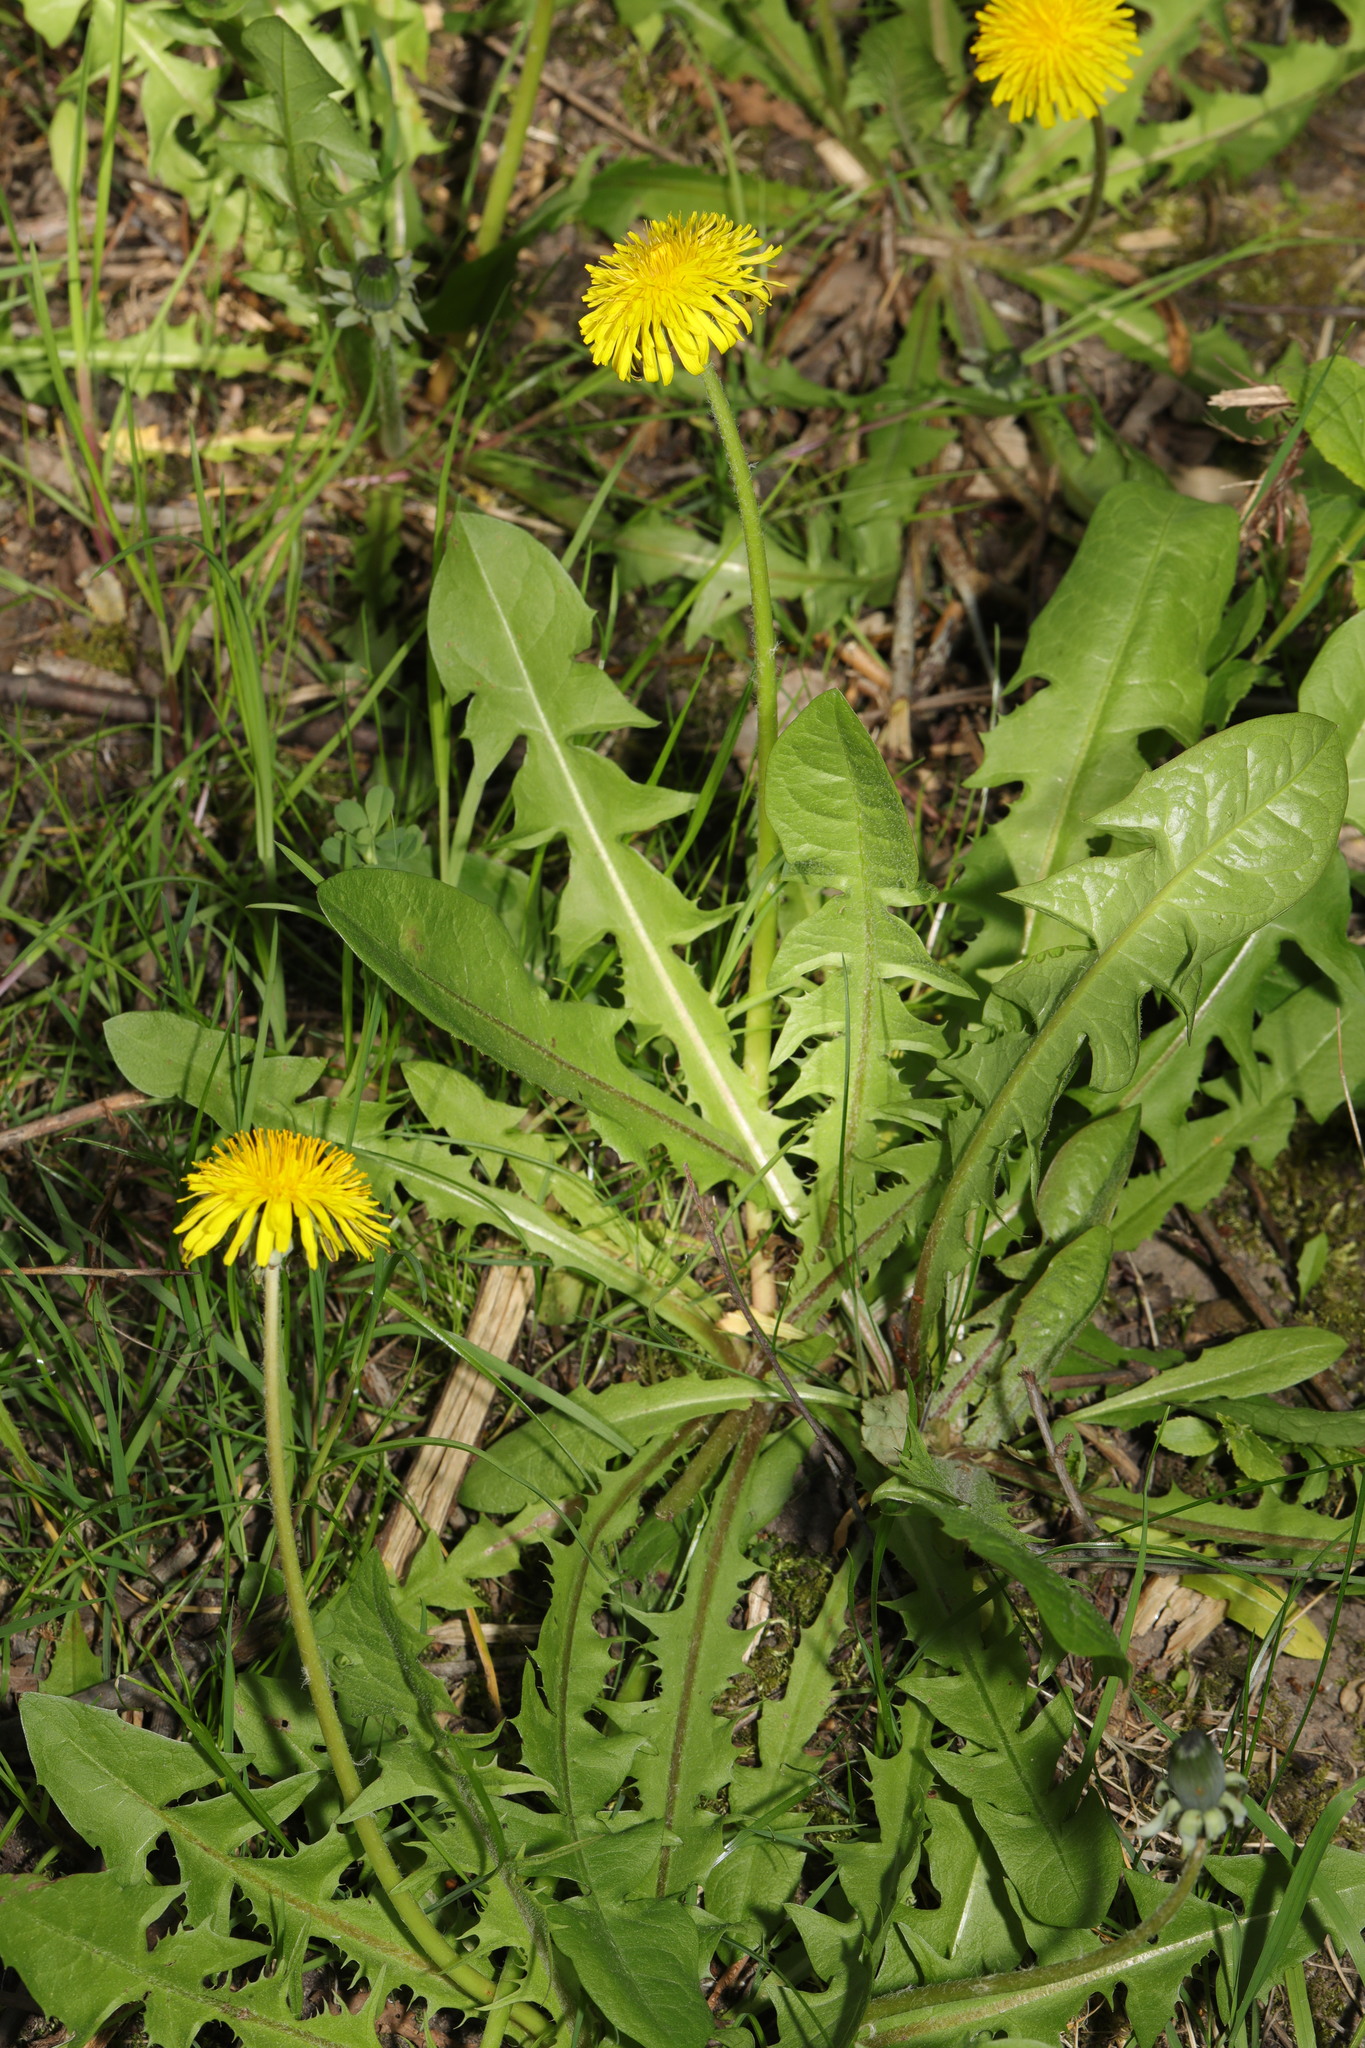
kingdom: Plantae
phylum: Tracheophyta
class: Magnoliopsida
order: Asterales
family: Asteraceae
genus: Taraxacum
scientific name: Taraxacum officinale
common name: Common dandelion
